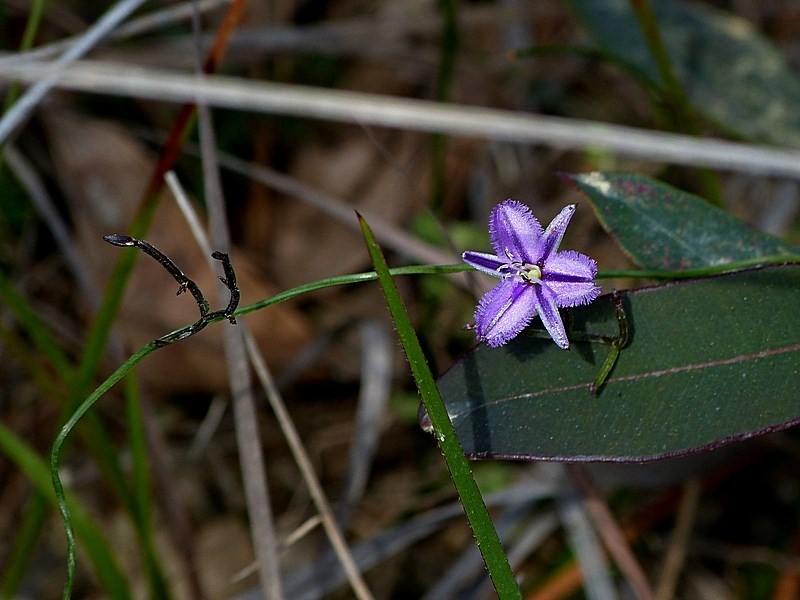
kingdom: Plantae
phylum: Tracheophyta
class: Liliopsida
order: Asparagales
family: Asparagaceae
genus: Thysanotus
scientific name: Thysanotus patersonii
